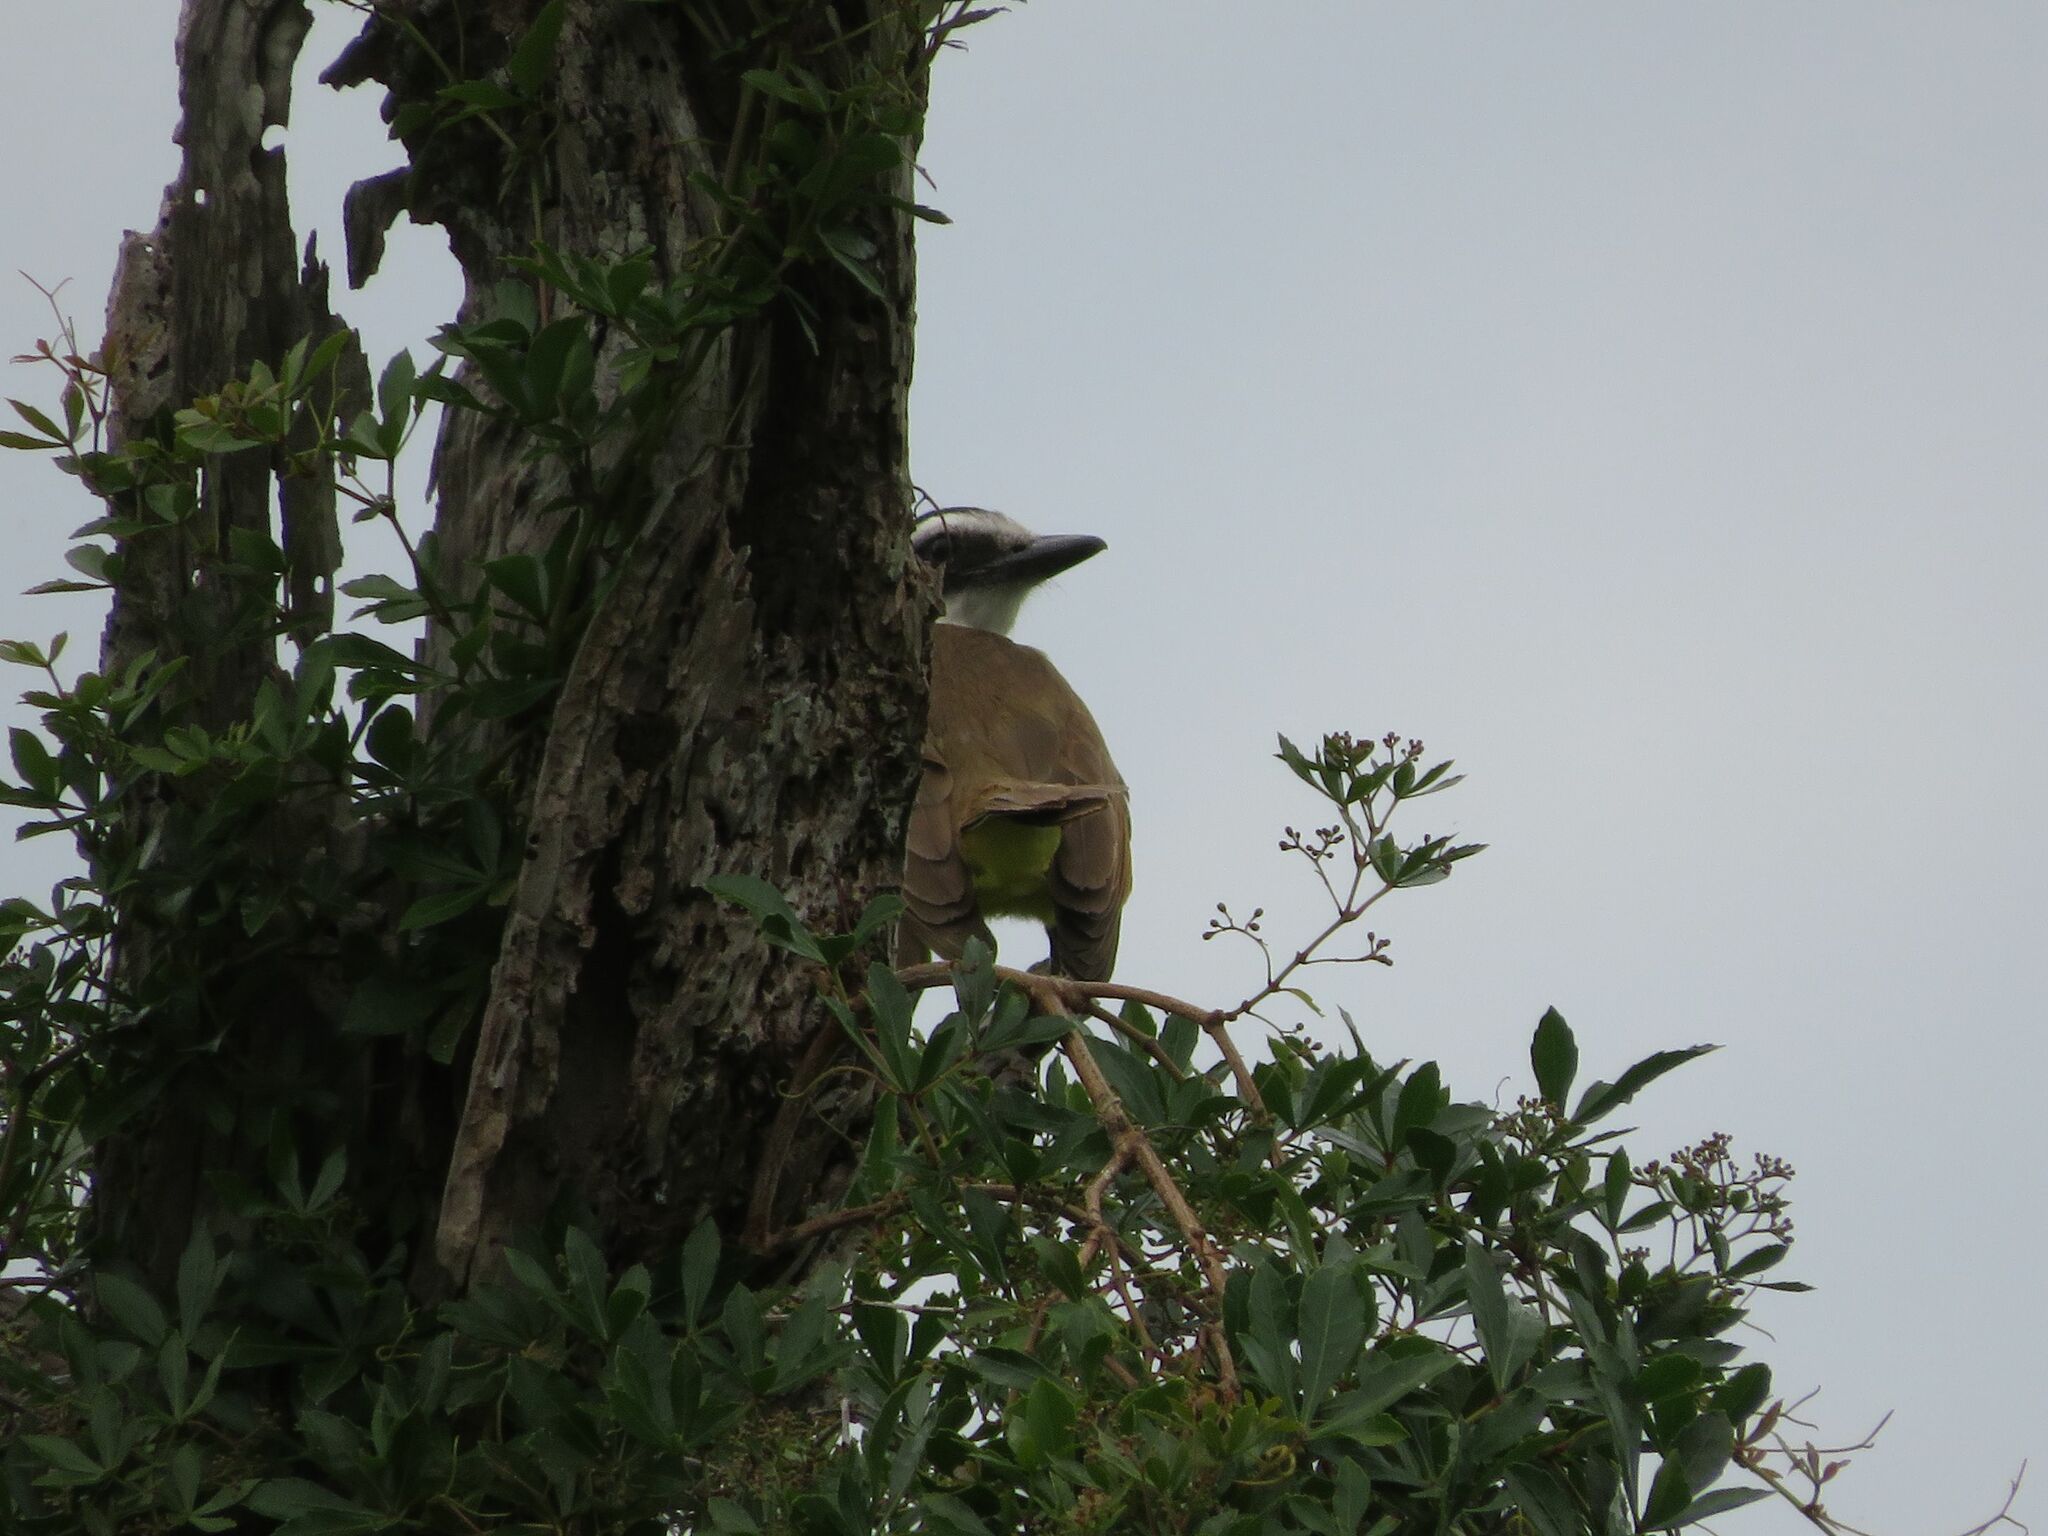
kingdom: Animalia
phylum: Chordata
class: Aves
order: Passeriformes
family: Tyrannidae
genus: Pitangus
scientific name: Pitangus sulphuratus
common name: Great kiskadee
